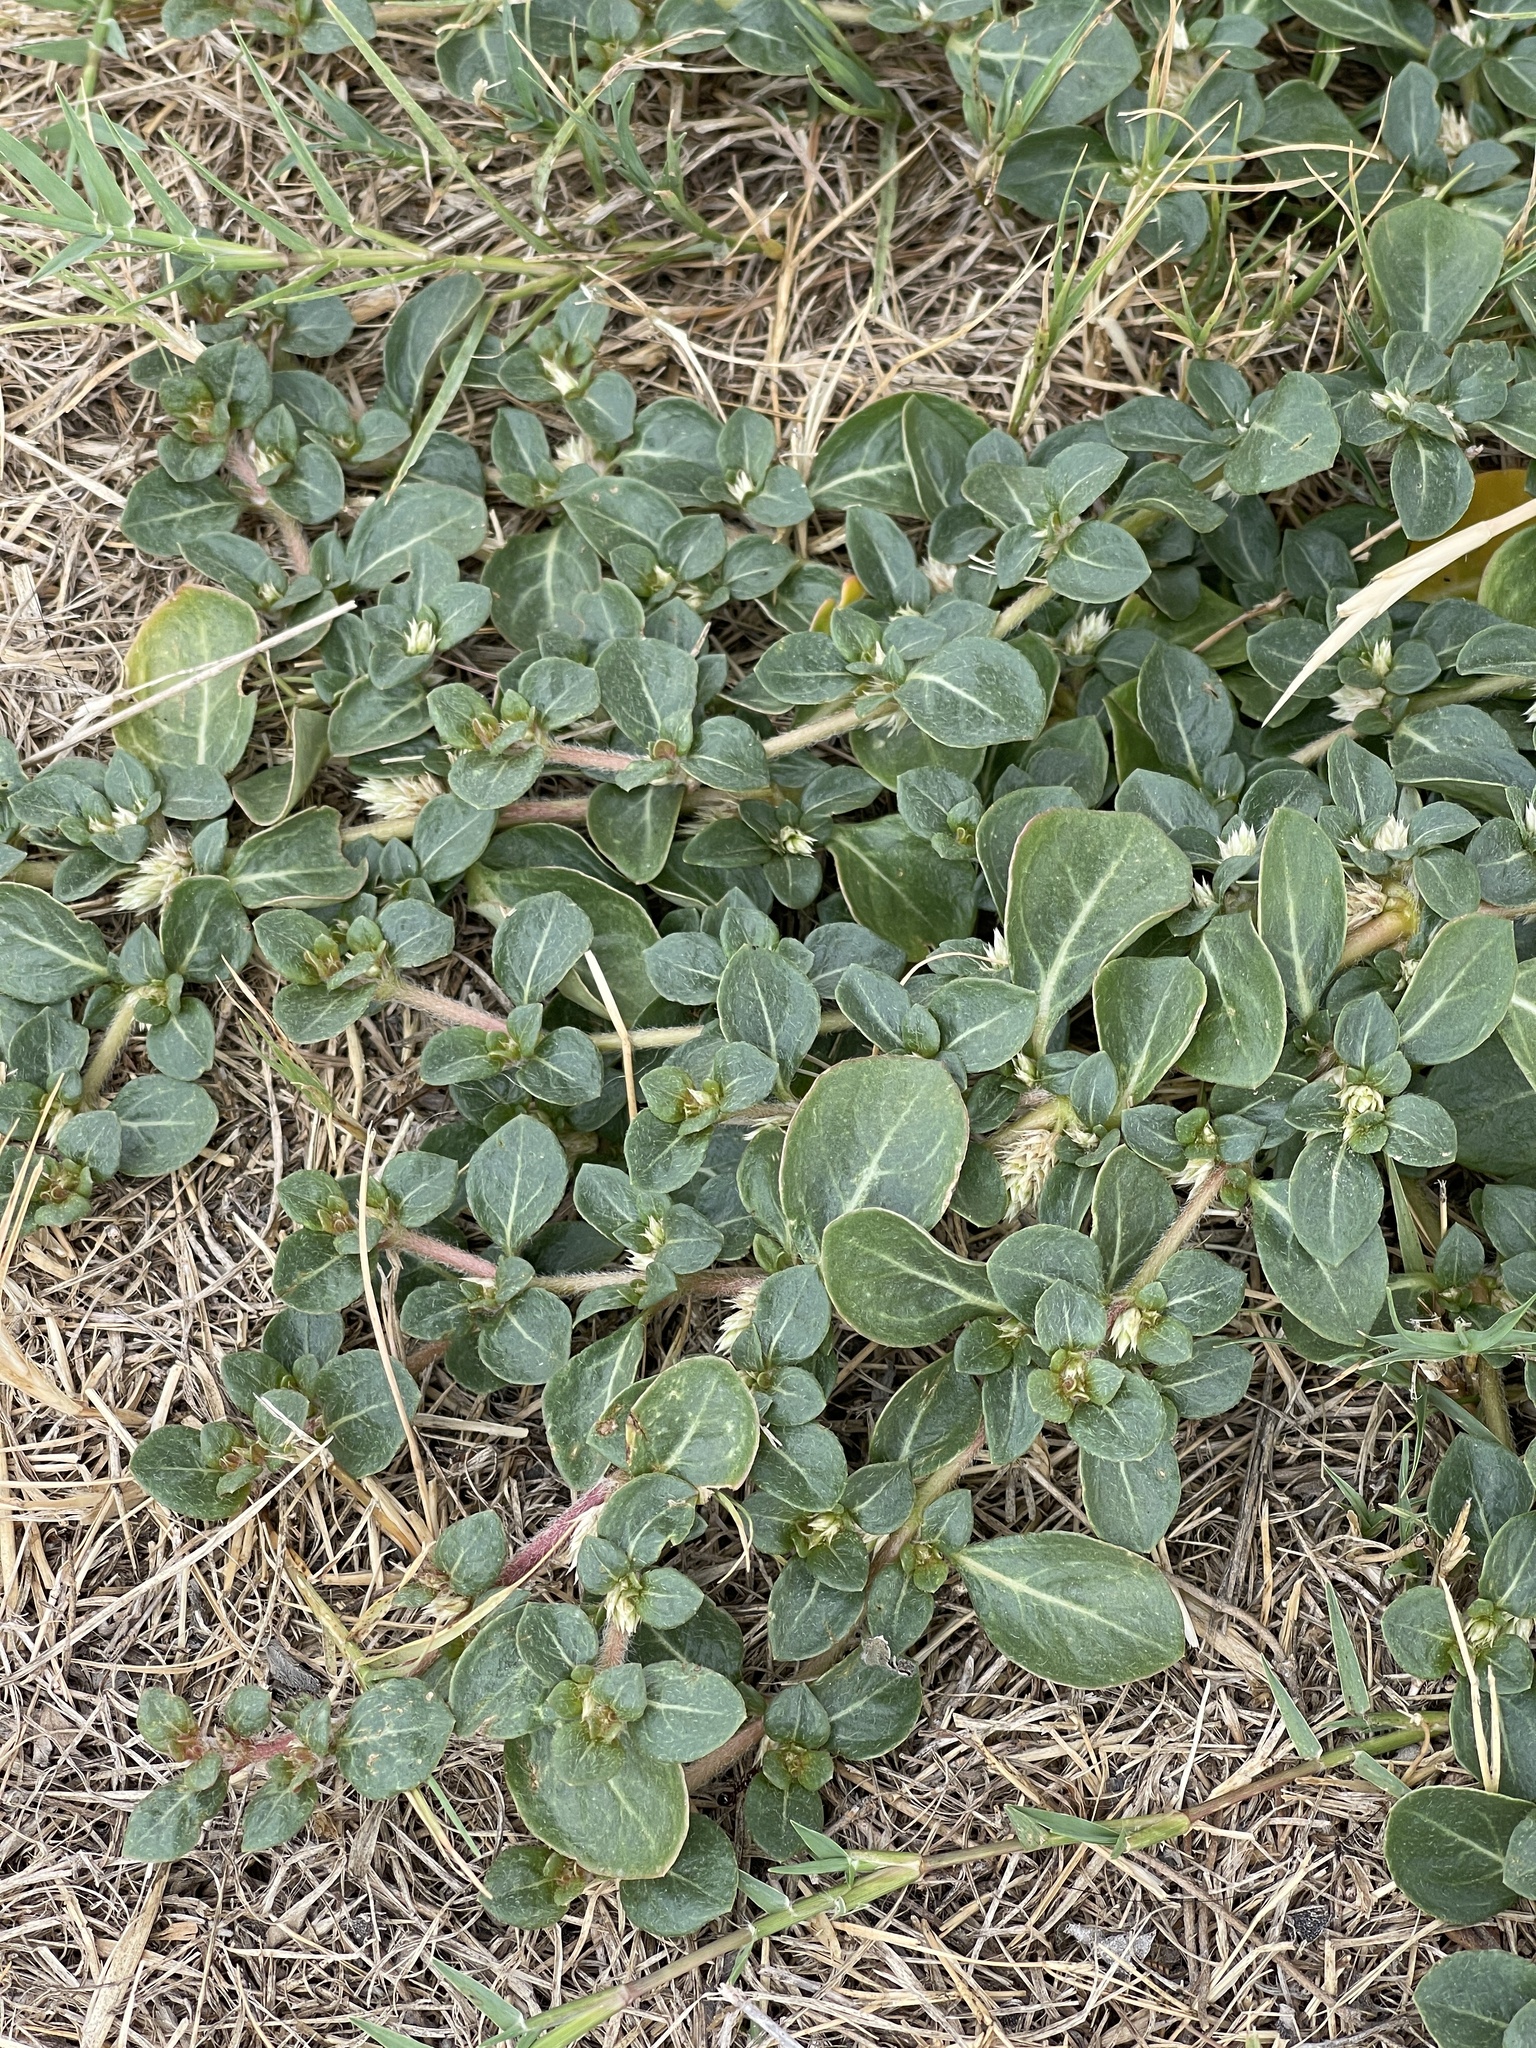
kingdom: Plantae
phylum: Tracheophyta
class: Magnoliopsida
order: Caryophyllales
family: Amaranthaceae
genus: Alternanthera
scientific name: Alternanthera caracasana
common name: Washerwoman
